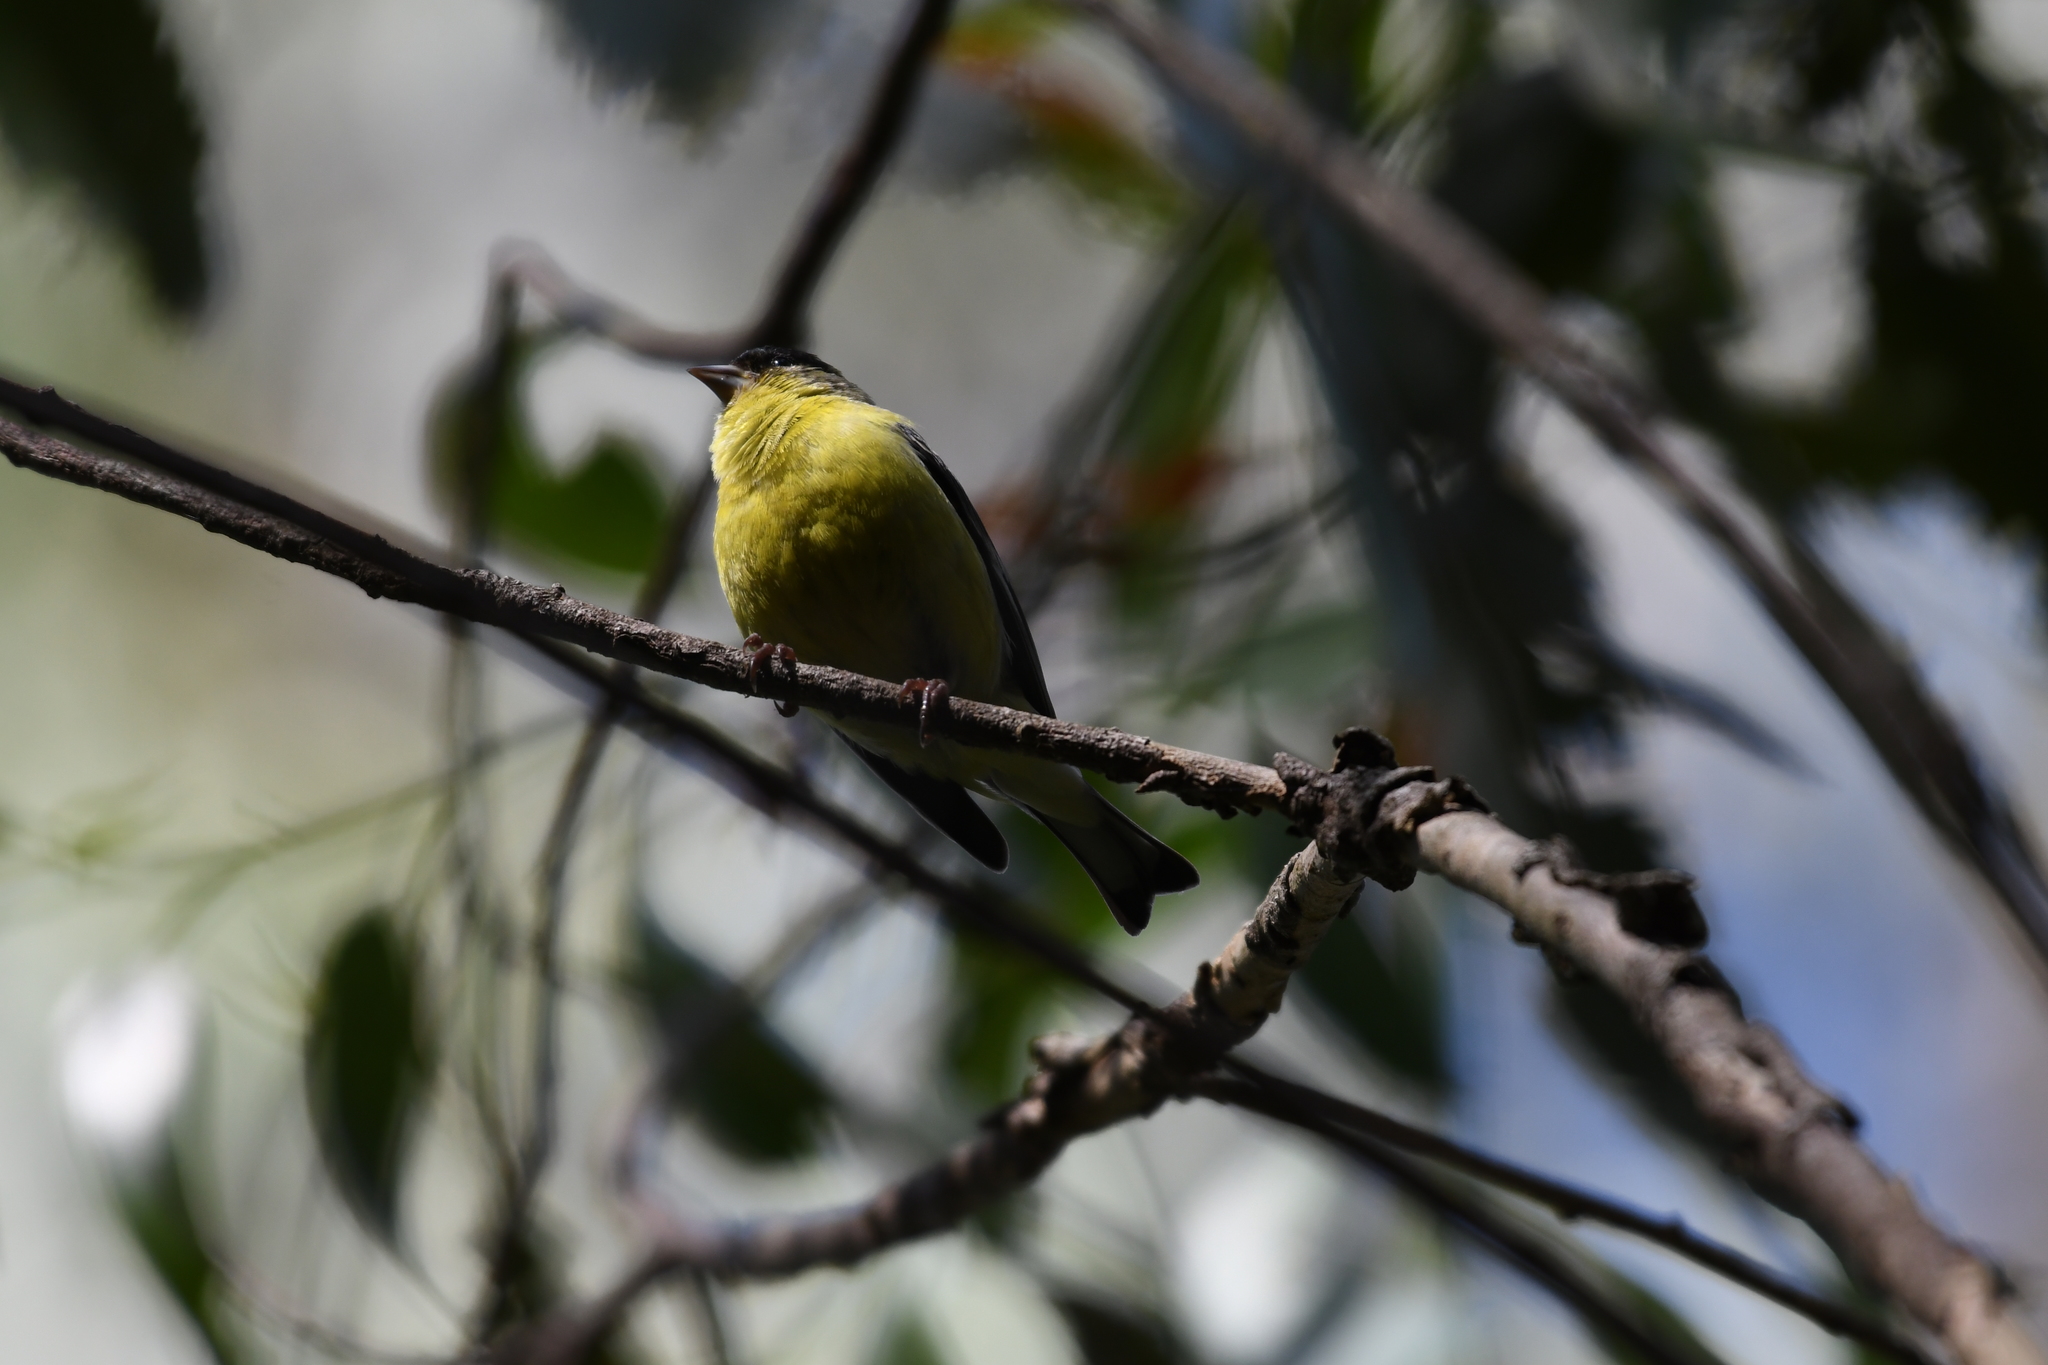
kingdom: Animalia
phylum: Chordata
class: Aves
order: Passeriformes
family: Fringillidae
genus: Spinus
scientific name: Spinus psaltria
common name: Lesser goldfinch
